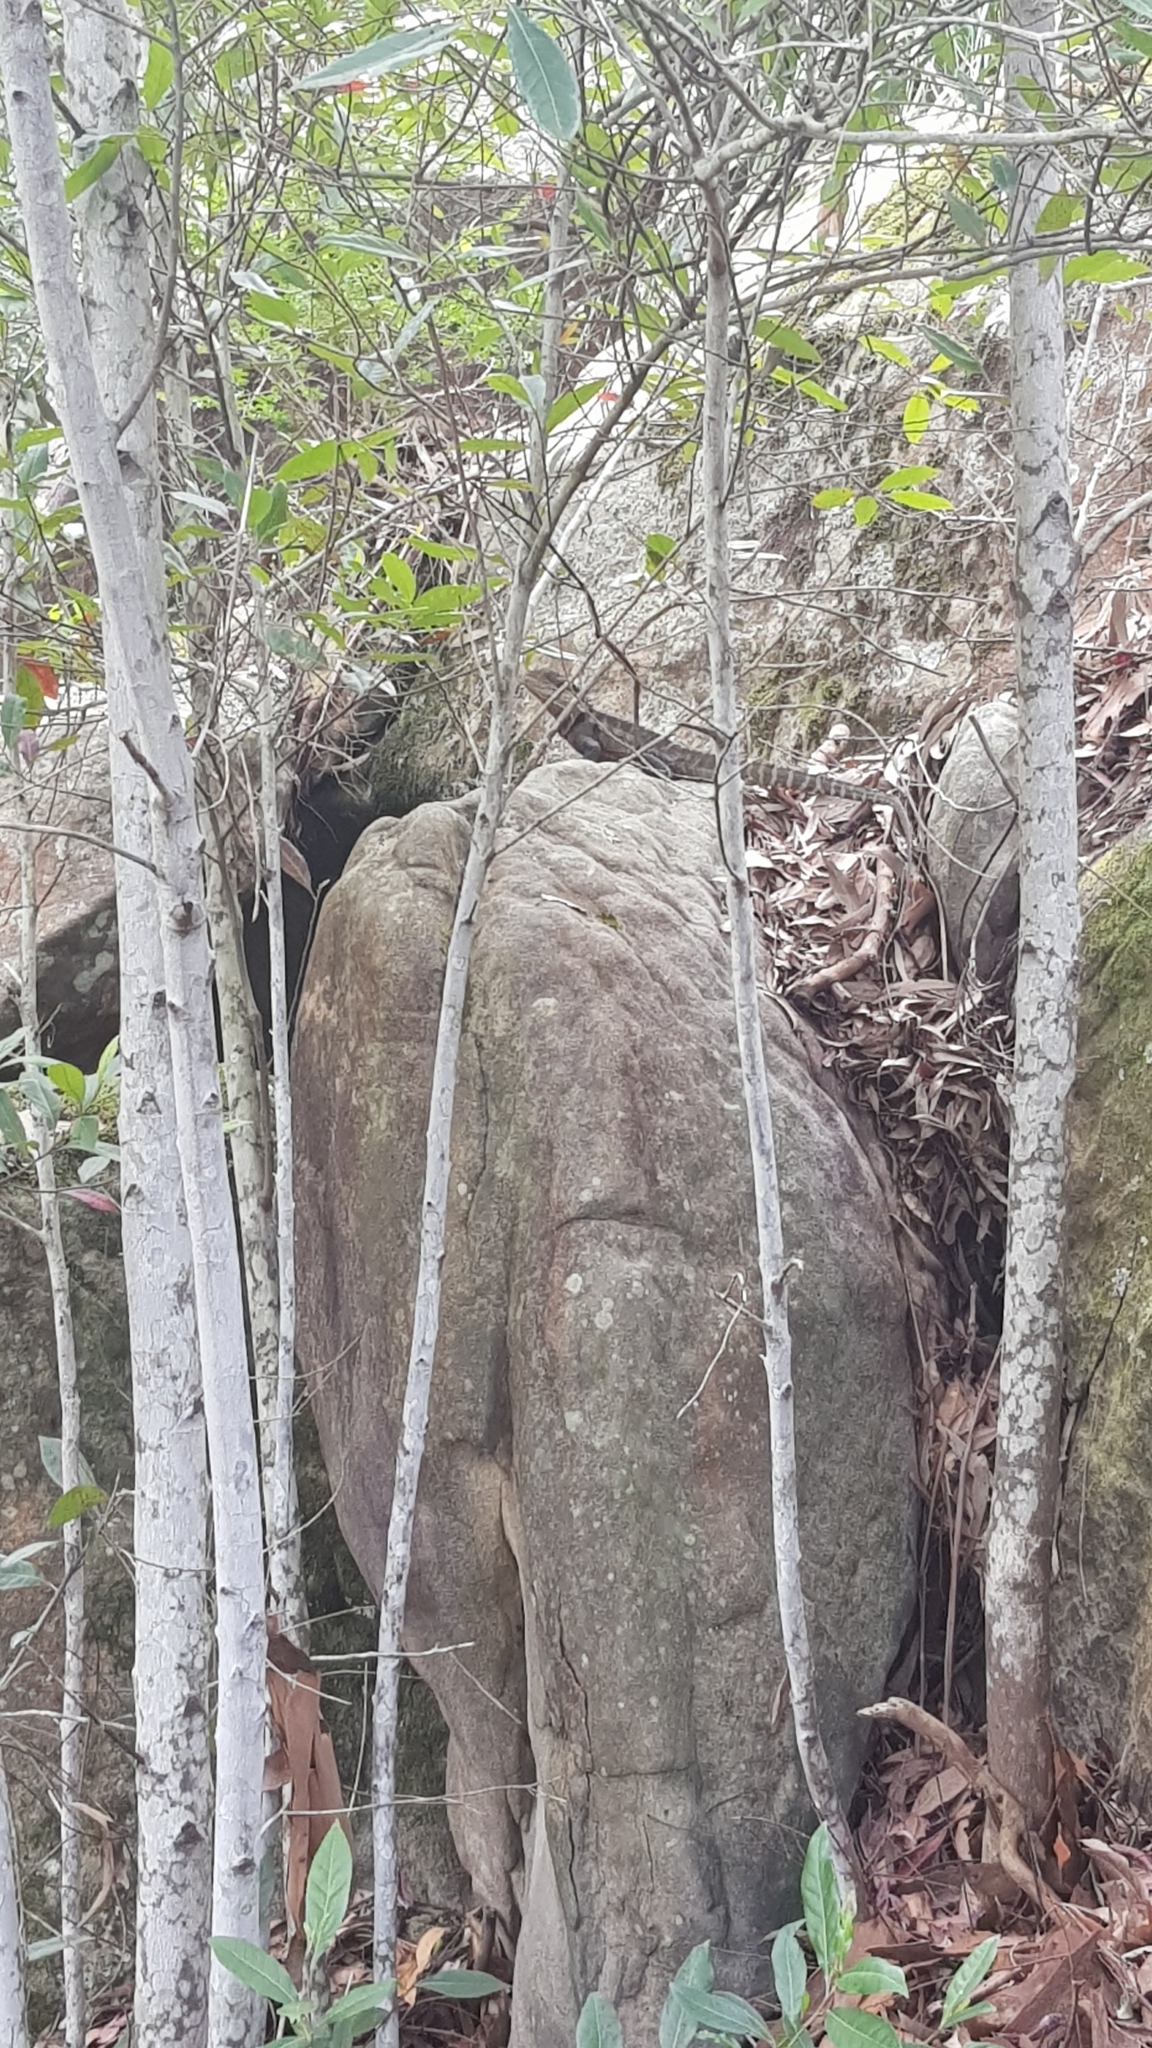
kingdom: Animalia
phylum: Chordata
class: Squamata
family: Agamidae
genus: Intellagama
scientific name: Intellagama lesueurii
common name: Eastern water dragon
